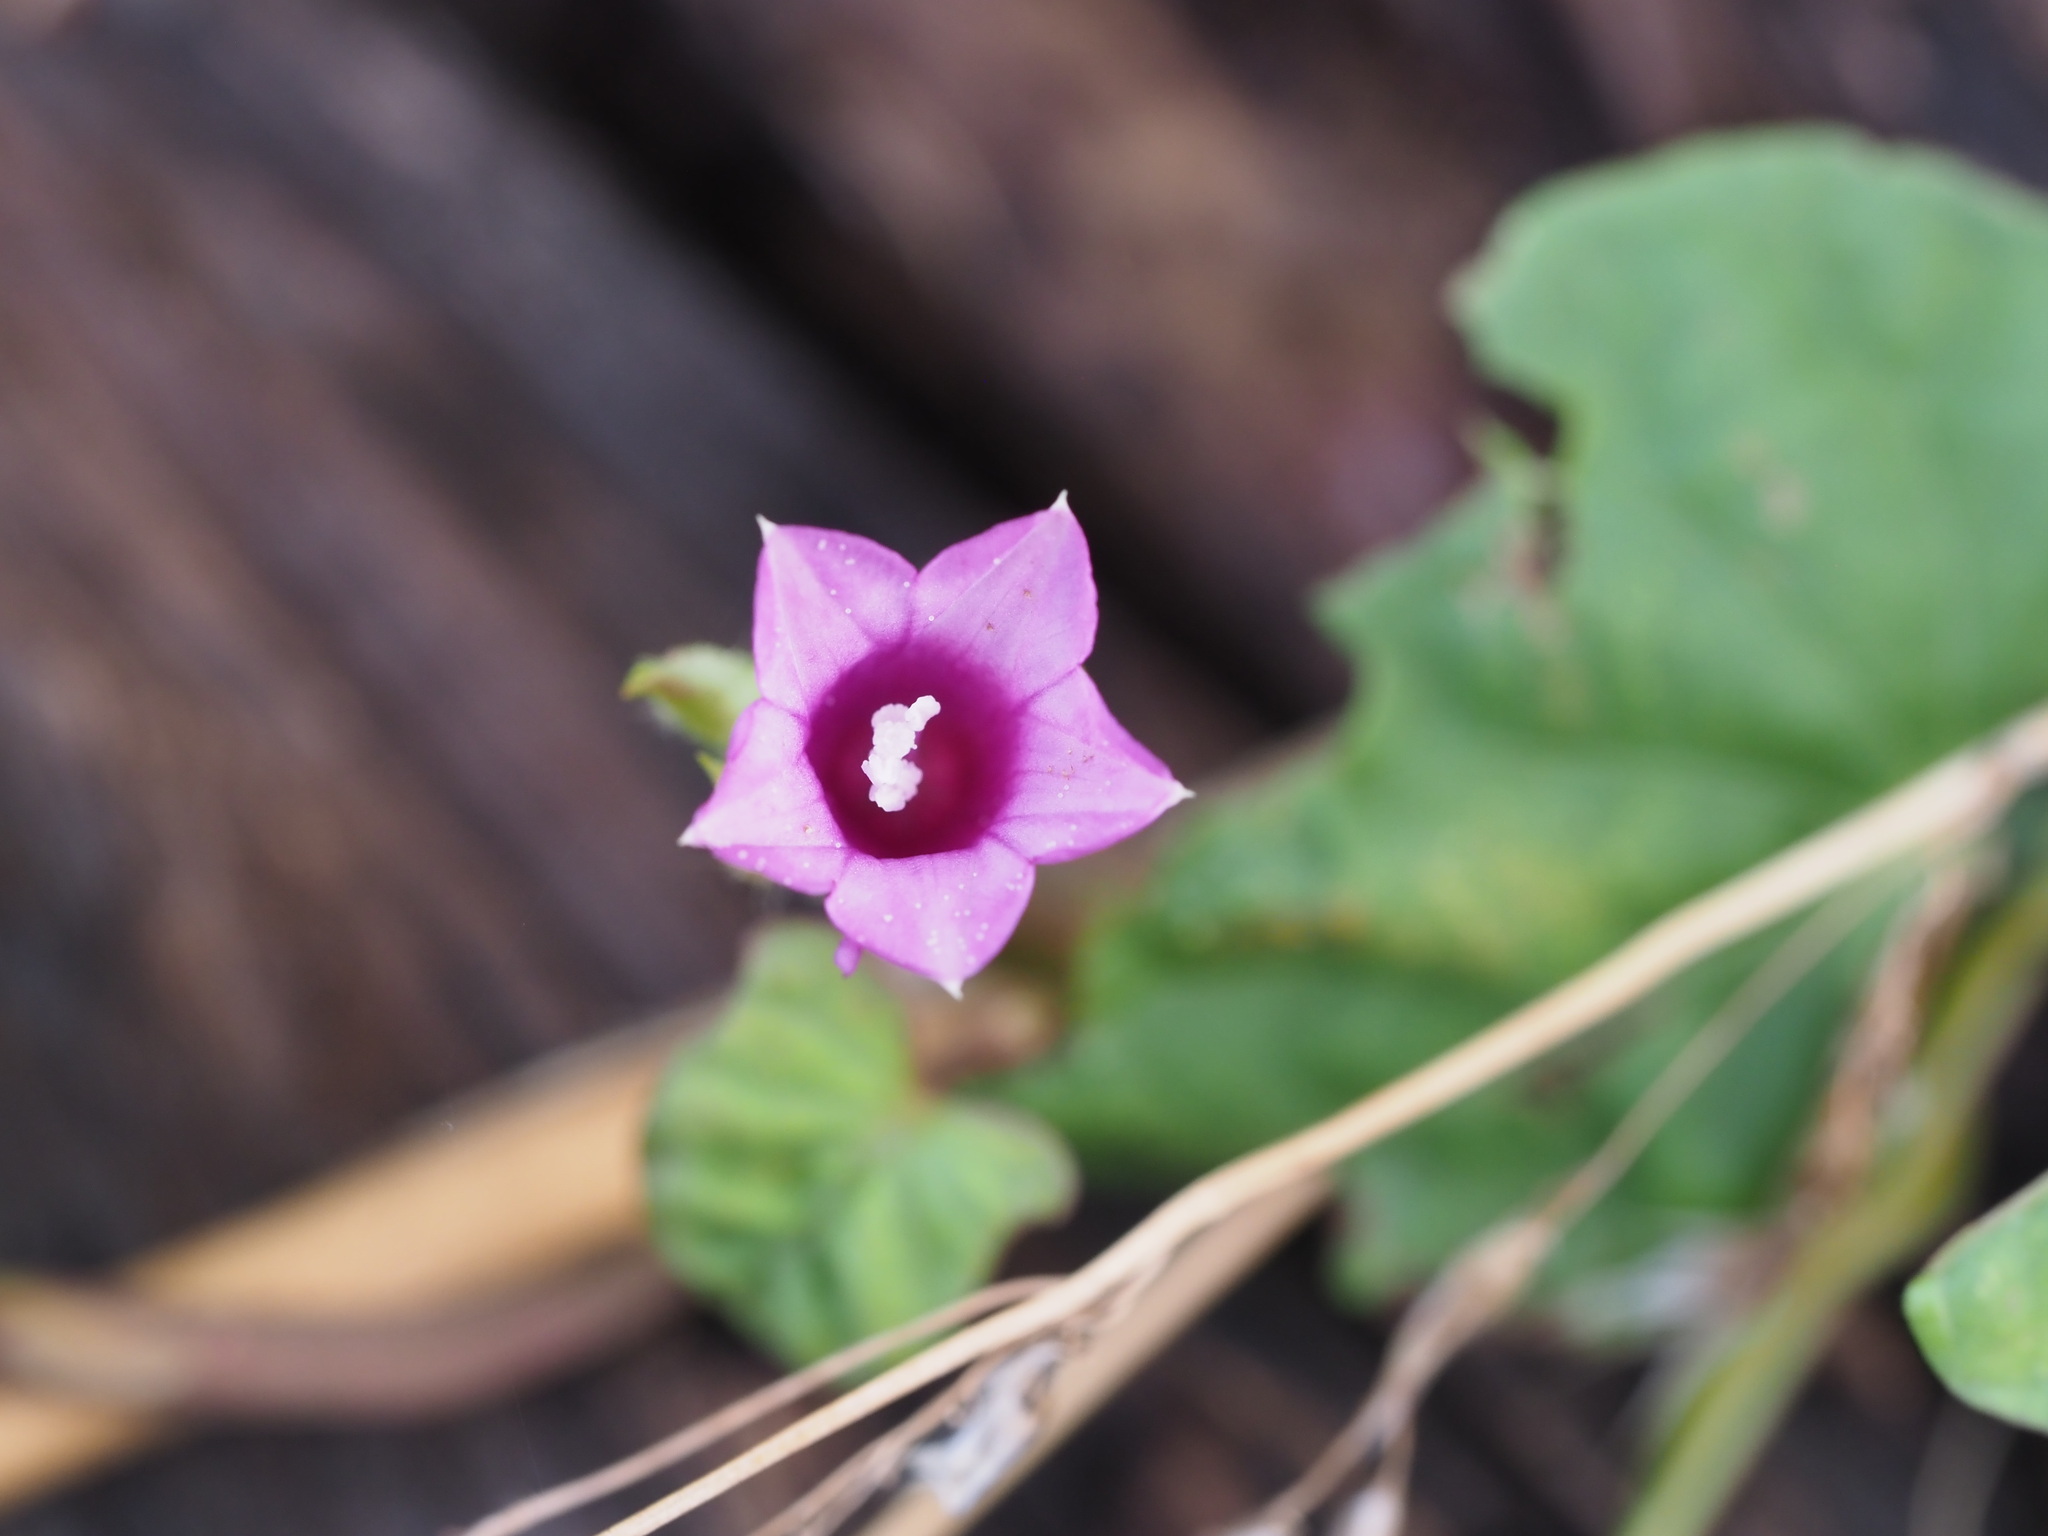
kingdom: Plantae
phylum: Tracheophyta
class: Magnoliopsida
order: Solanales
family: Convolvulaceae
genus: Ipomoea
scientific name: Ipomoea triloba
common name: Little-bell
